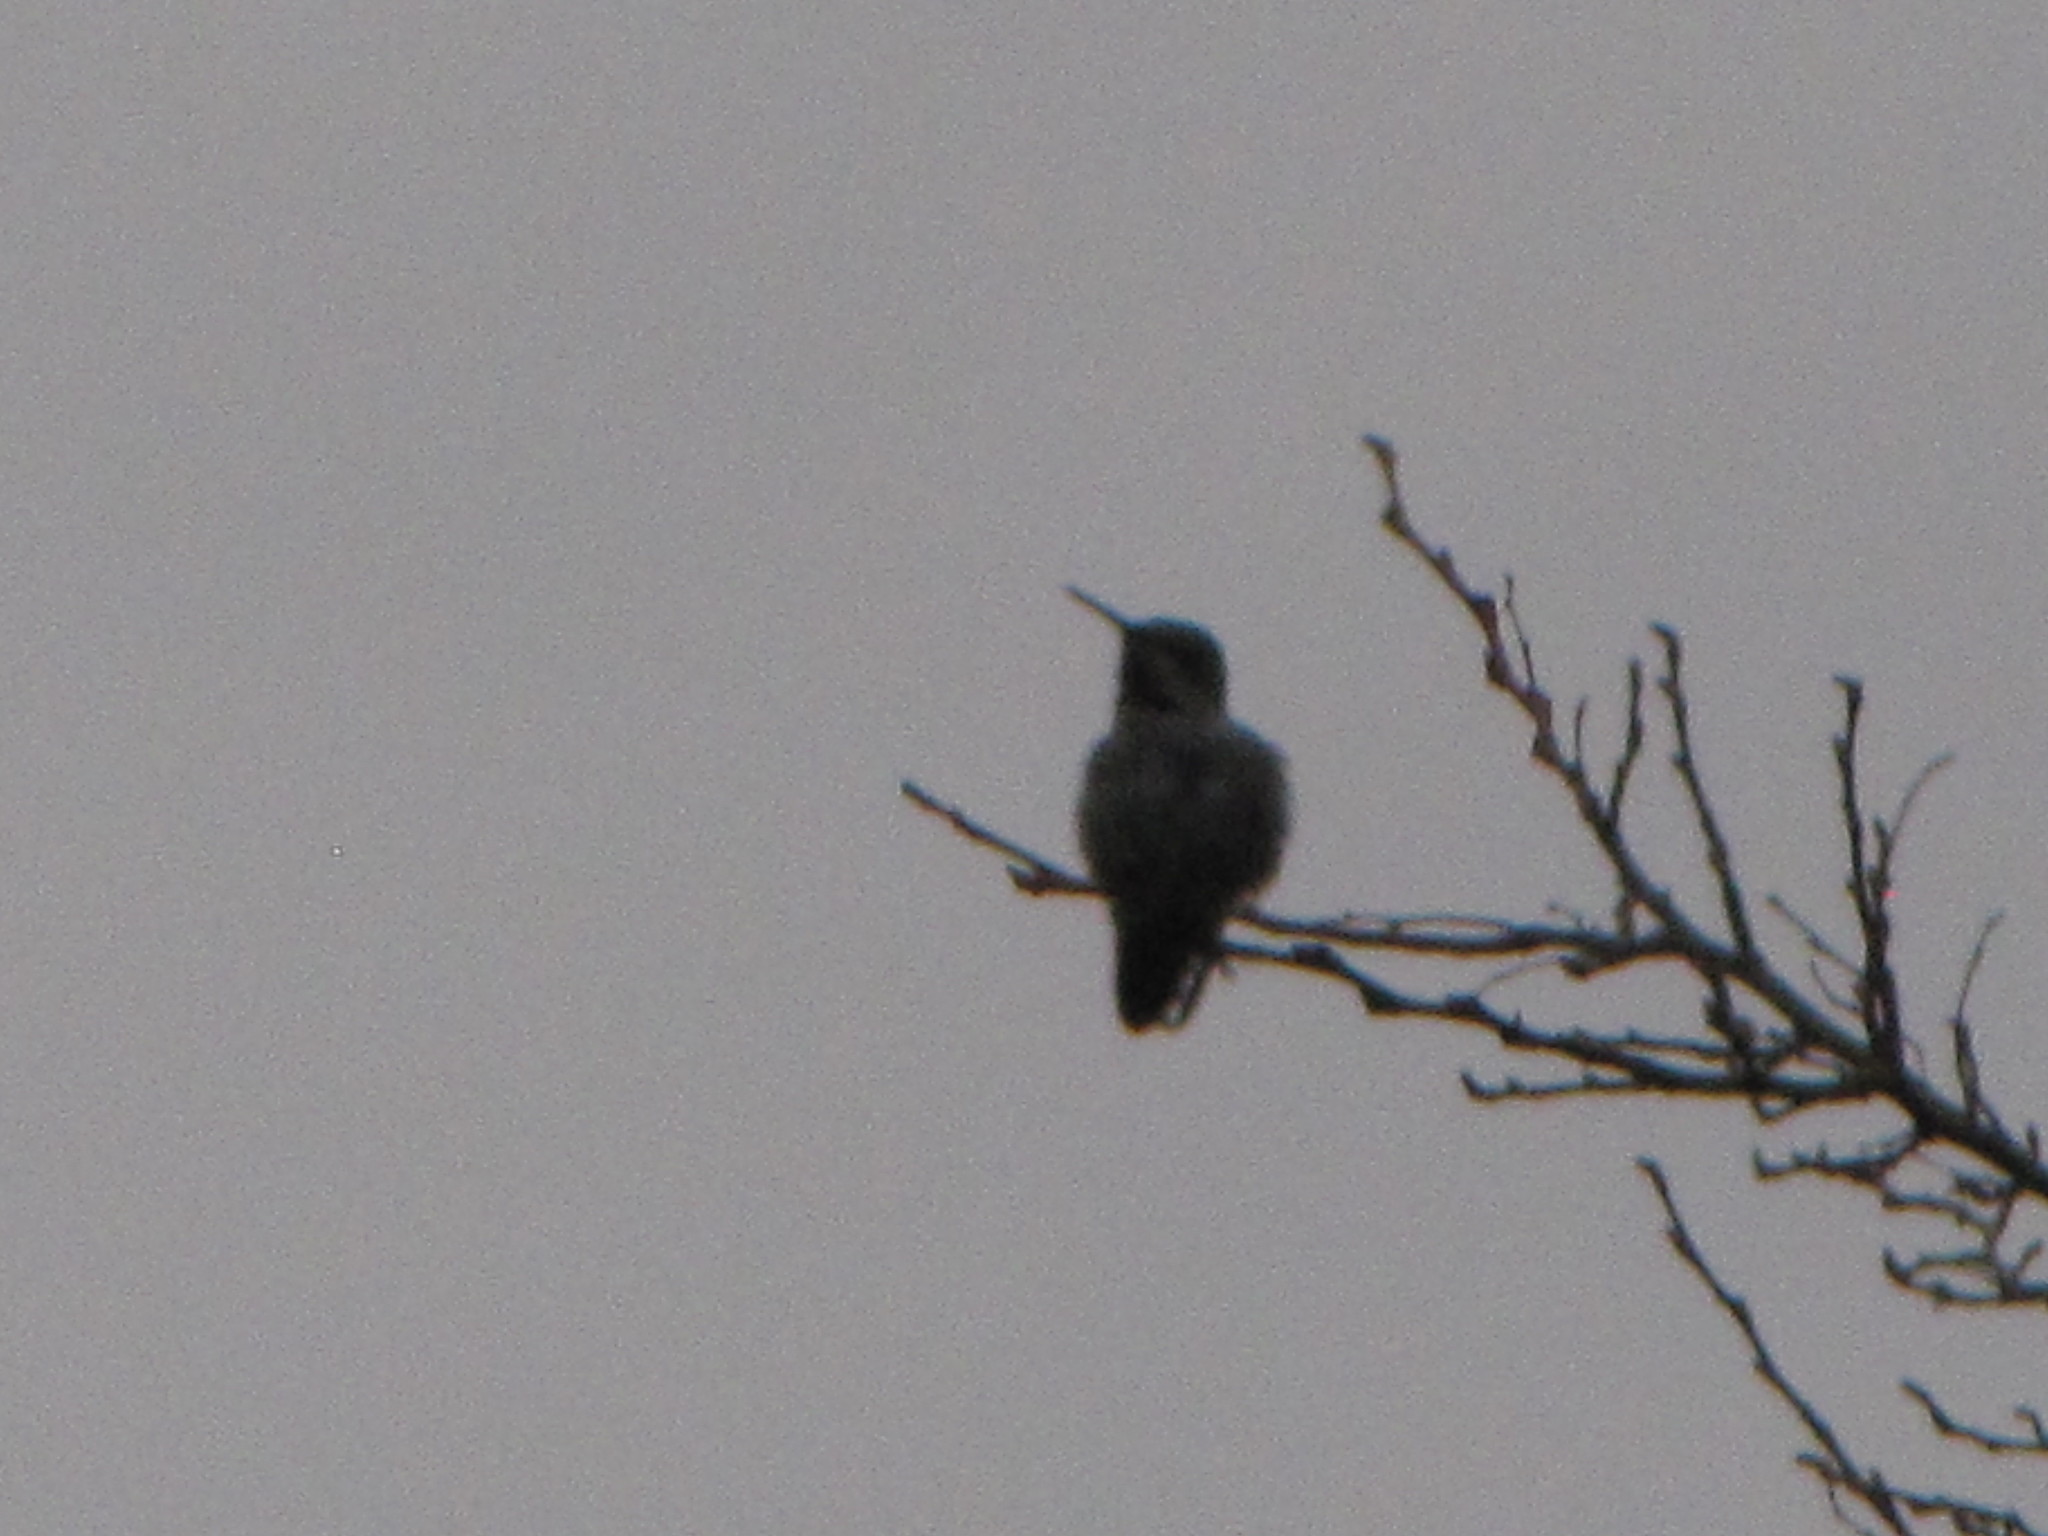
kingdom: Animalia
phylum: Chordata
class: Aves
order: Apodiformes
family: Trochilidae
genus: Calypte
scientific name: Calypte anna
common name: Anna's hummingbird
